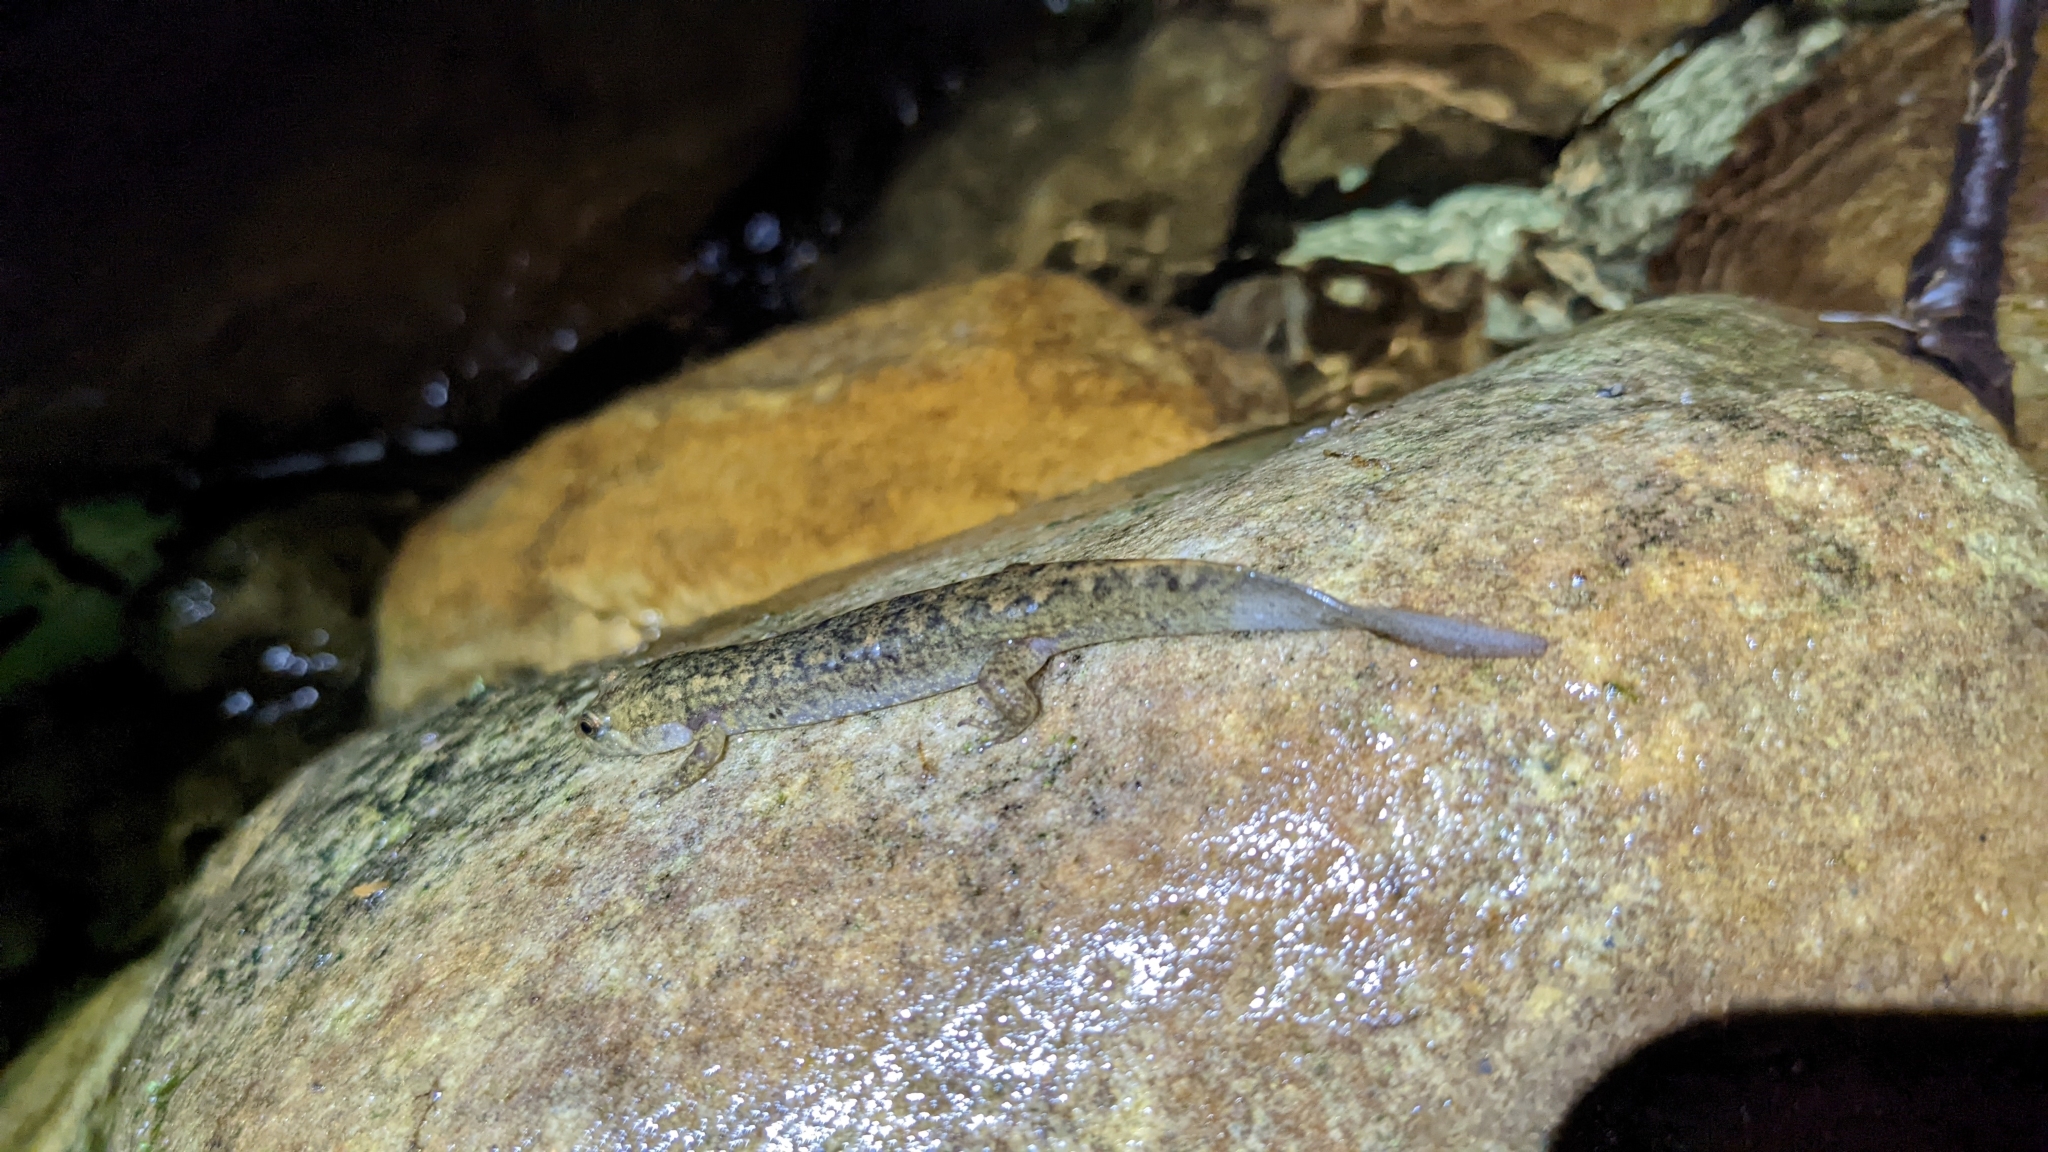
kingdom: Animalia
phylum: Chordata
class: Amphibia
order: Caudata
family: Plethodontidae
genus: Desmognathus
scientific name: Desmognathus
